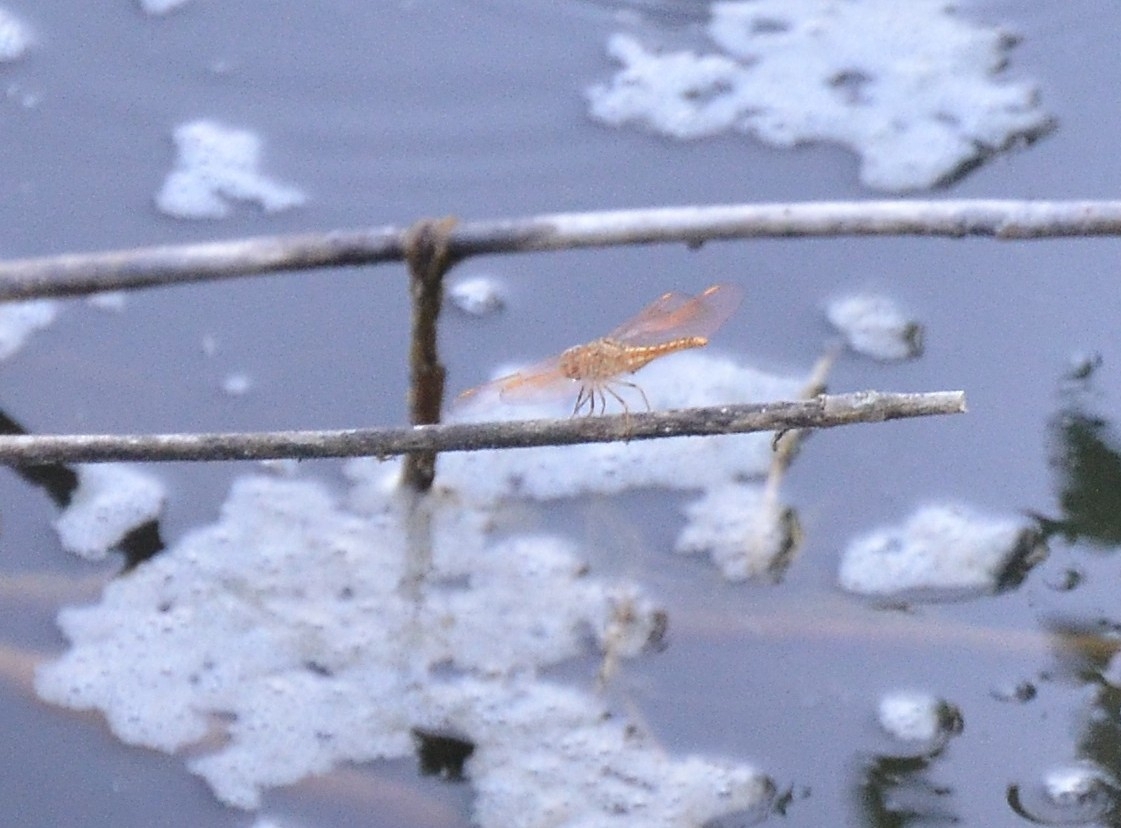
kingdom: Animalia
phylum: Arthropoda
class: Insecta
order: Odonata
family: Libellulidae
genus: Brachythemis
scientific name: Brachythemis contaminata
